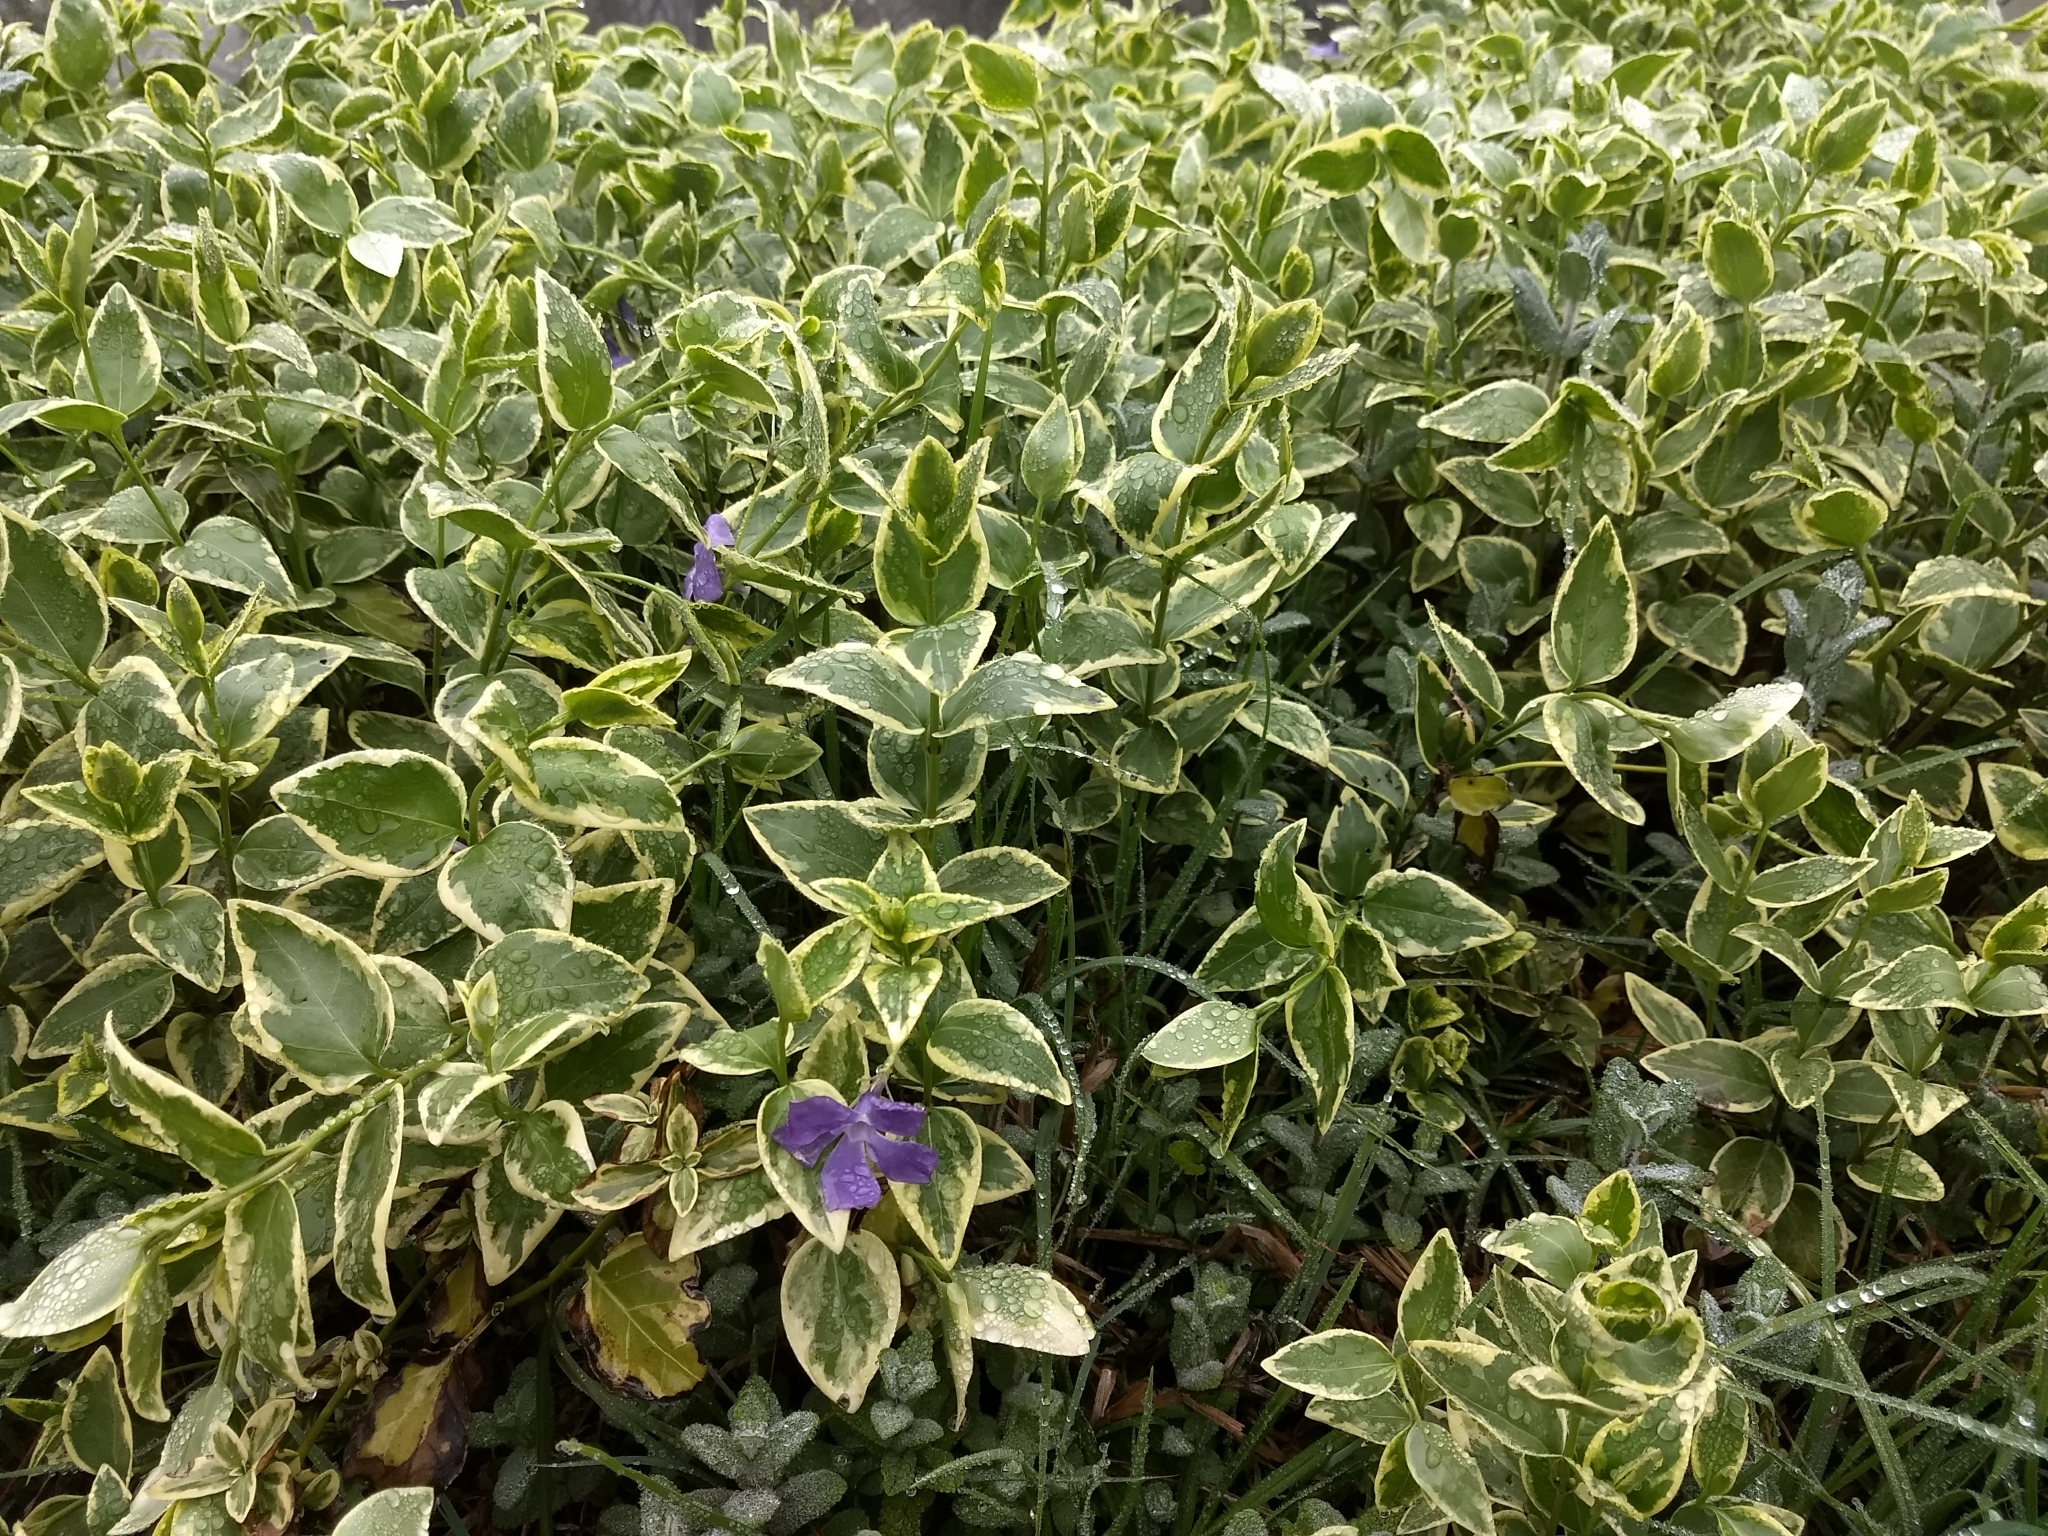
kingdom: Plantae
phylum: Tracheophyta
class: Magnoliopsida
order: Gentianales
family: Apocynaceae
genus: Vinca
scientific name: Vinca major
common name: Greater periwinkle
